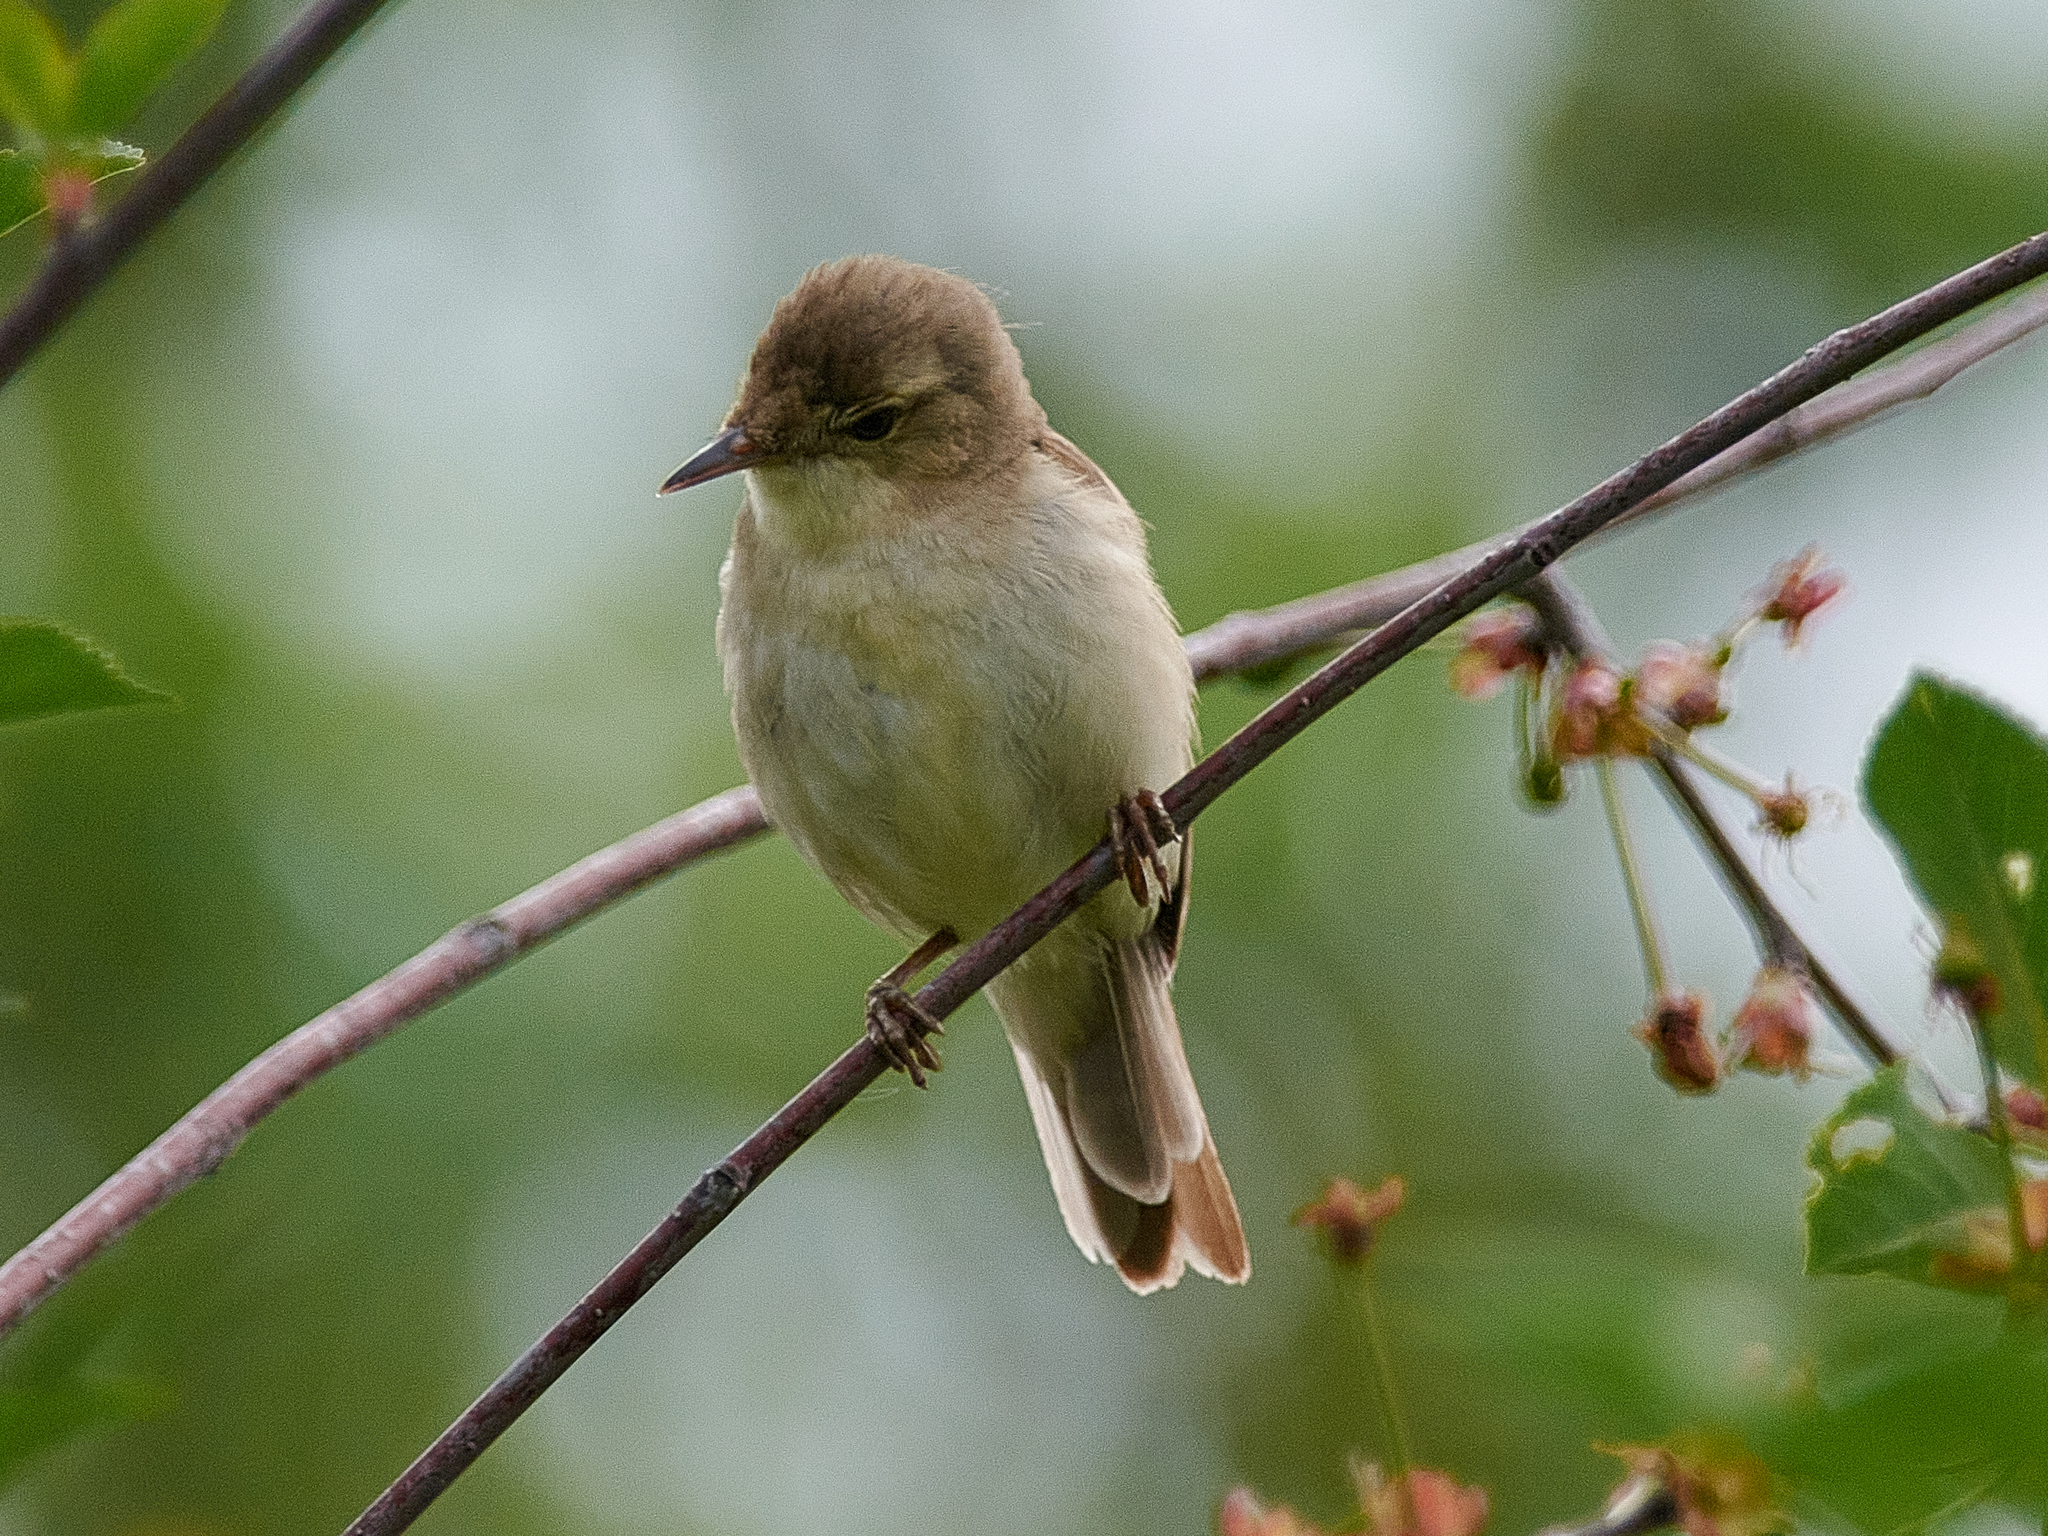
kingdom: Animalia
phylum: Chordata
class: Aves
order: Passeriformes
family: Acrocephalidae
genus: Acrocephalus
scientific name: Acrocephalus dumetorum
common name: Blyth's reed warbler
